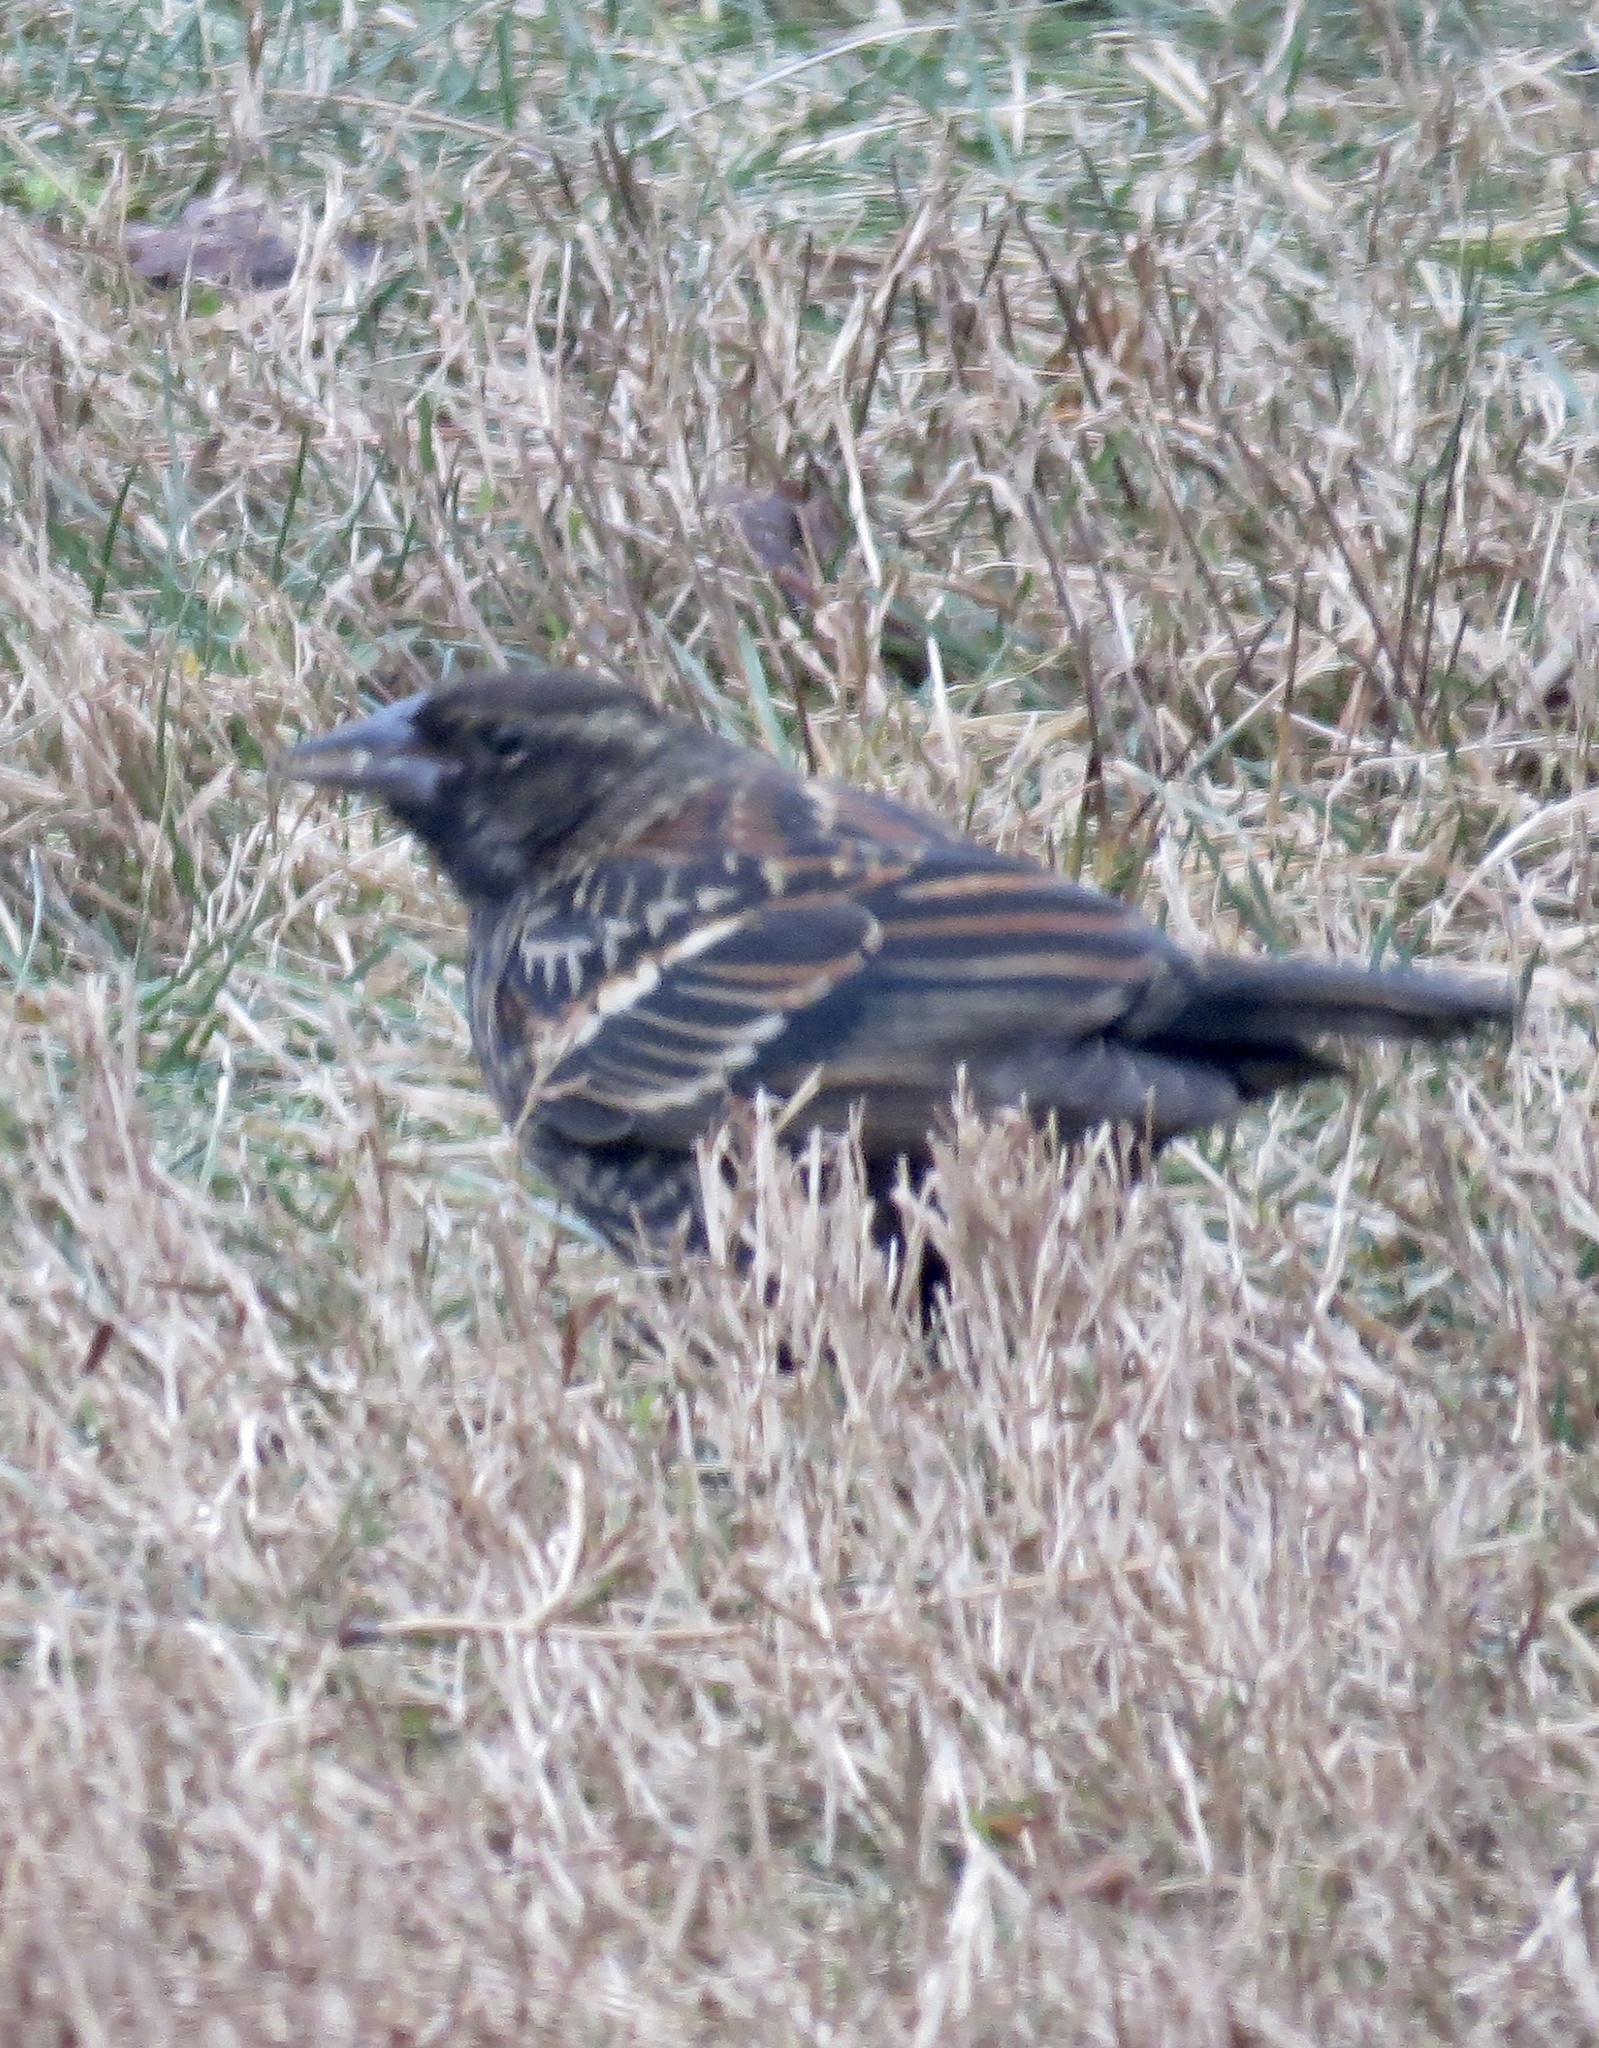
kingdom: Animalia
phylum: Chordata
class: Aves
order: Passeriformes
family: Icteridae
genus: Agelaius
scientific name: Agelaius phoeniceus
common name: Red-winged blackbird
